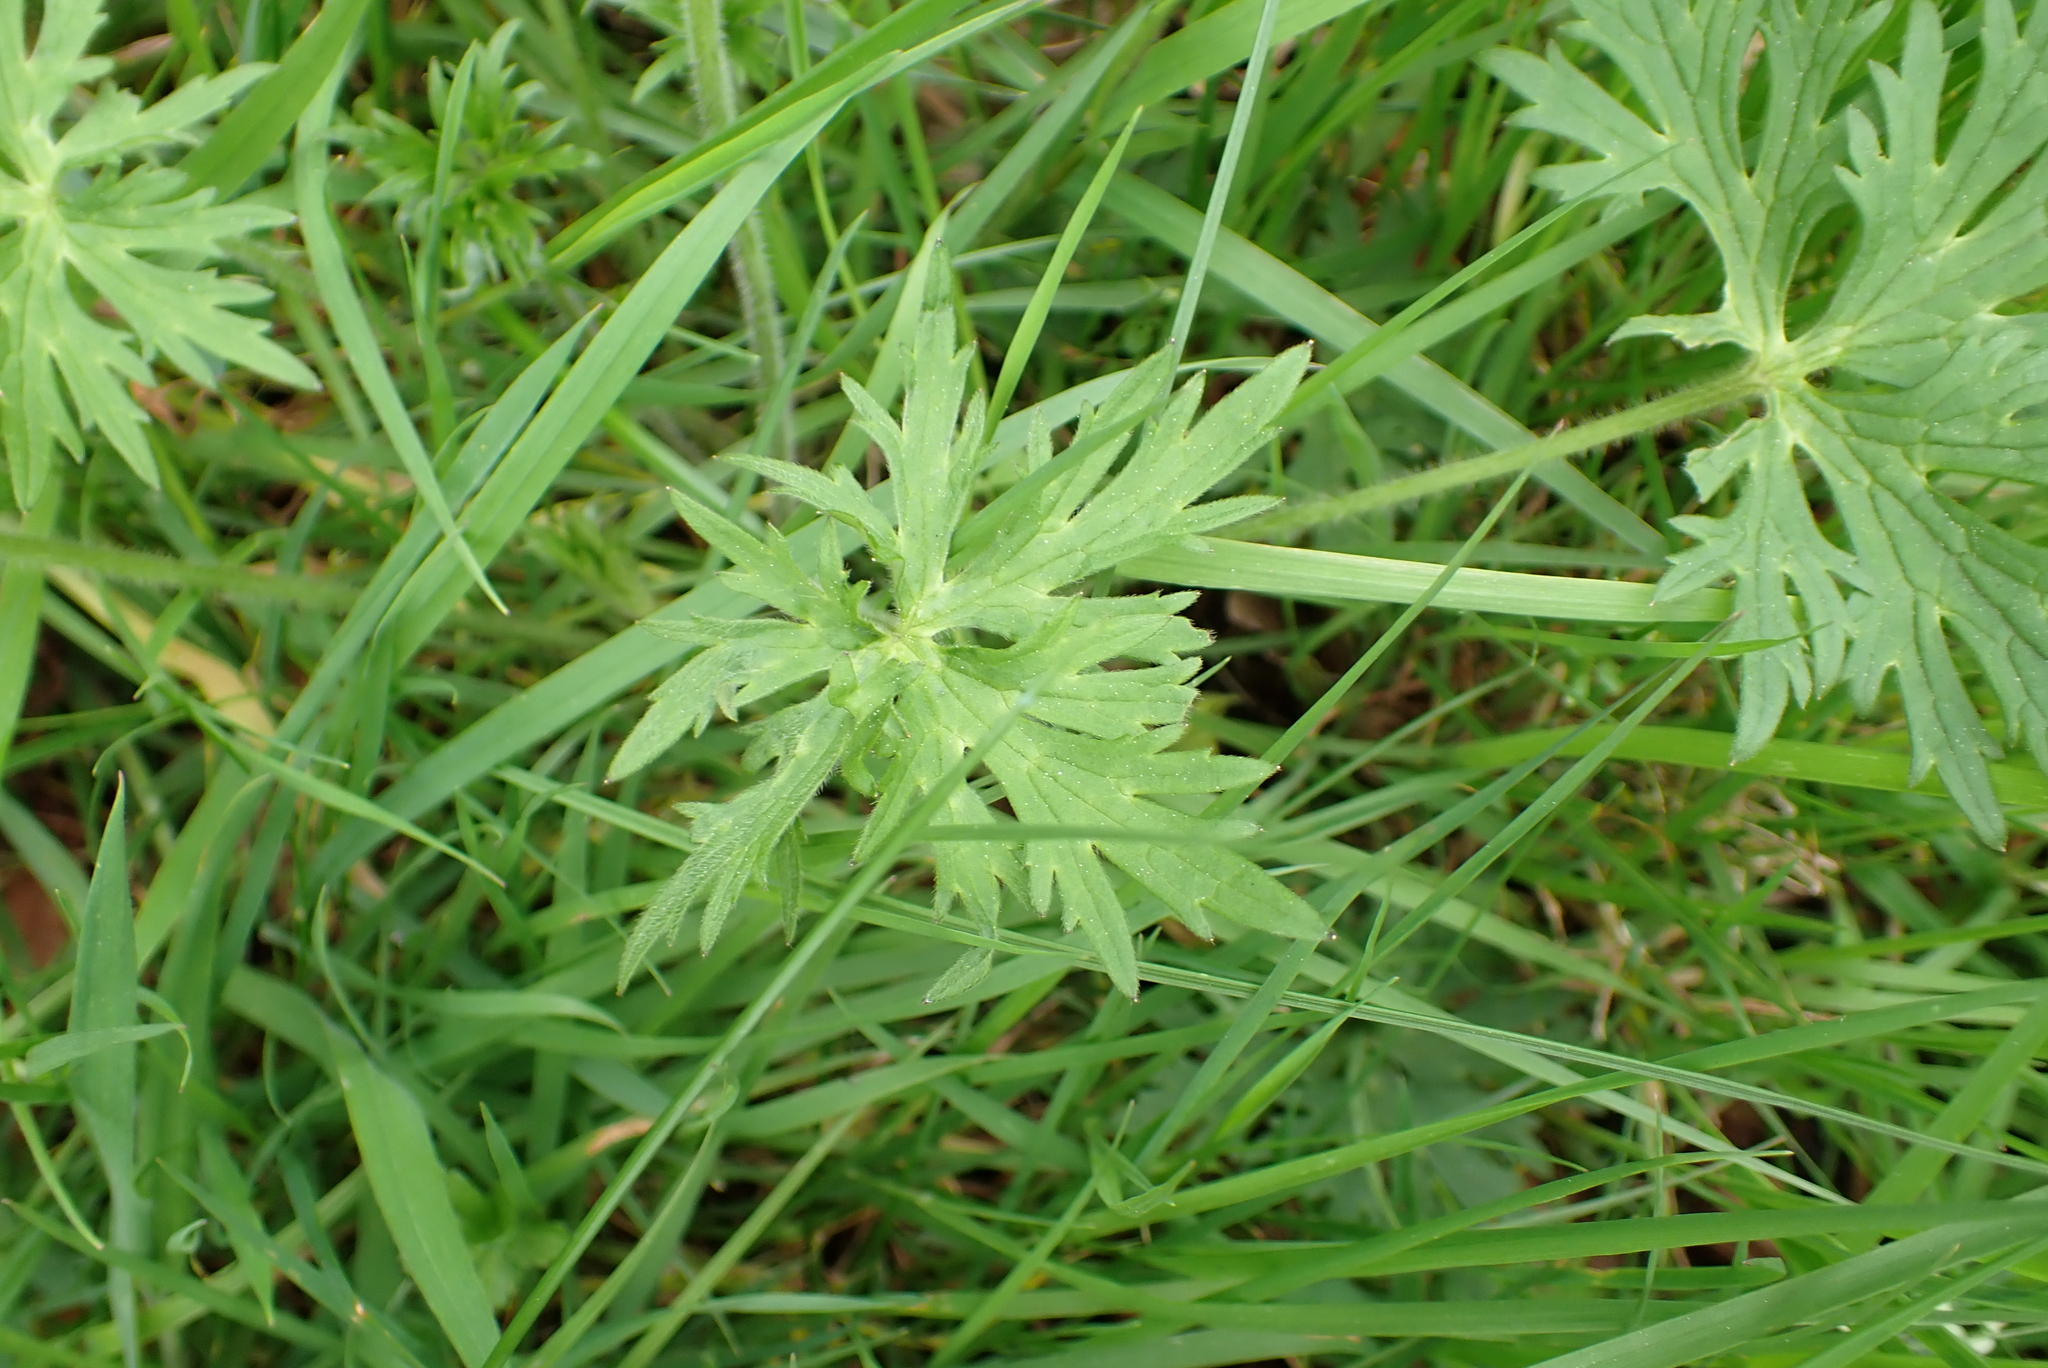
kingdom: Plantae
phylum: Tracheophyta
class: Magnoliopsida
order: Ranunculales
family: Ranunculaceae
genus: Ranunculus
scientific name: Ranunculus acris
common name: Meadow buttercup
